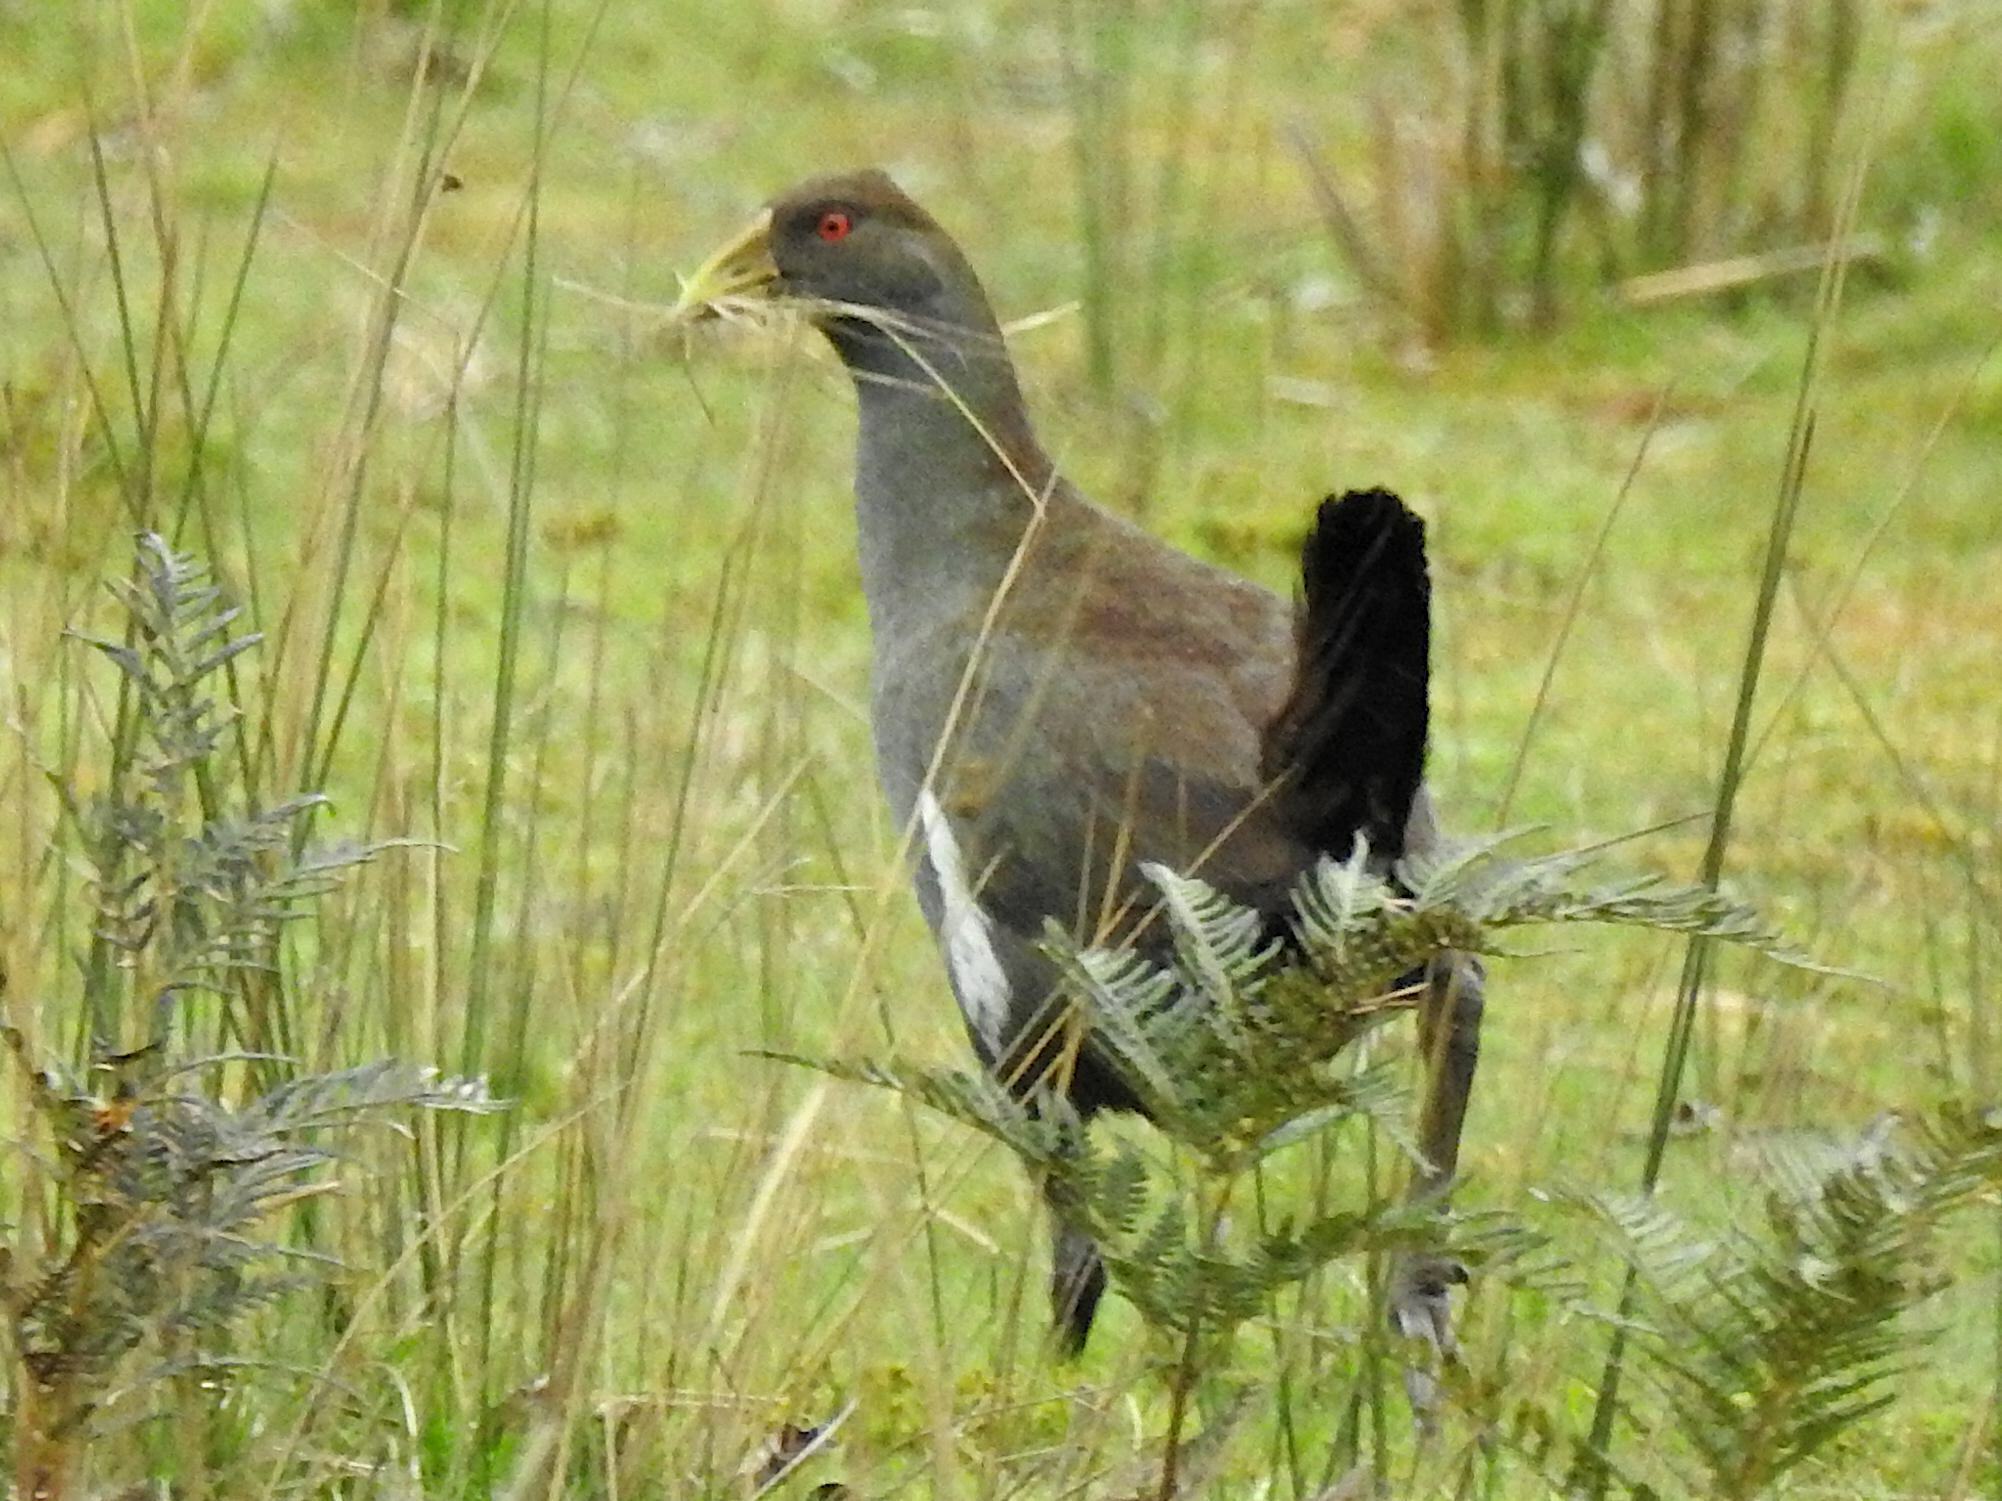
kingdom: Animalia
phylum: Chordata
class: Aves
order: Gruiformes
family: Rallidae
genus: Gallinula
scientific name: Gallinula mortierii
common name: Tasmanian nativehen
